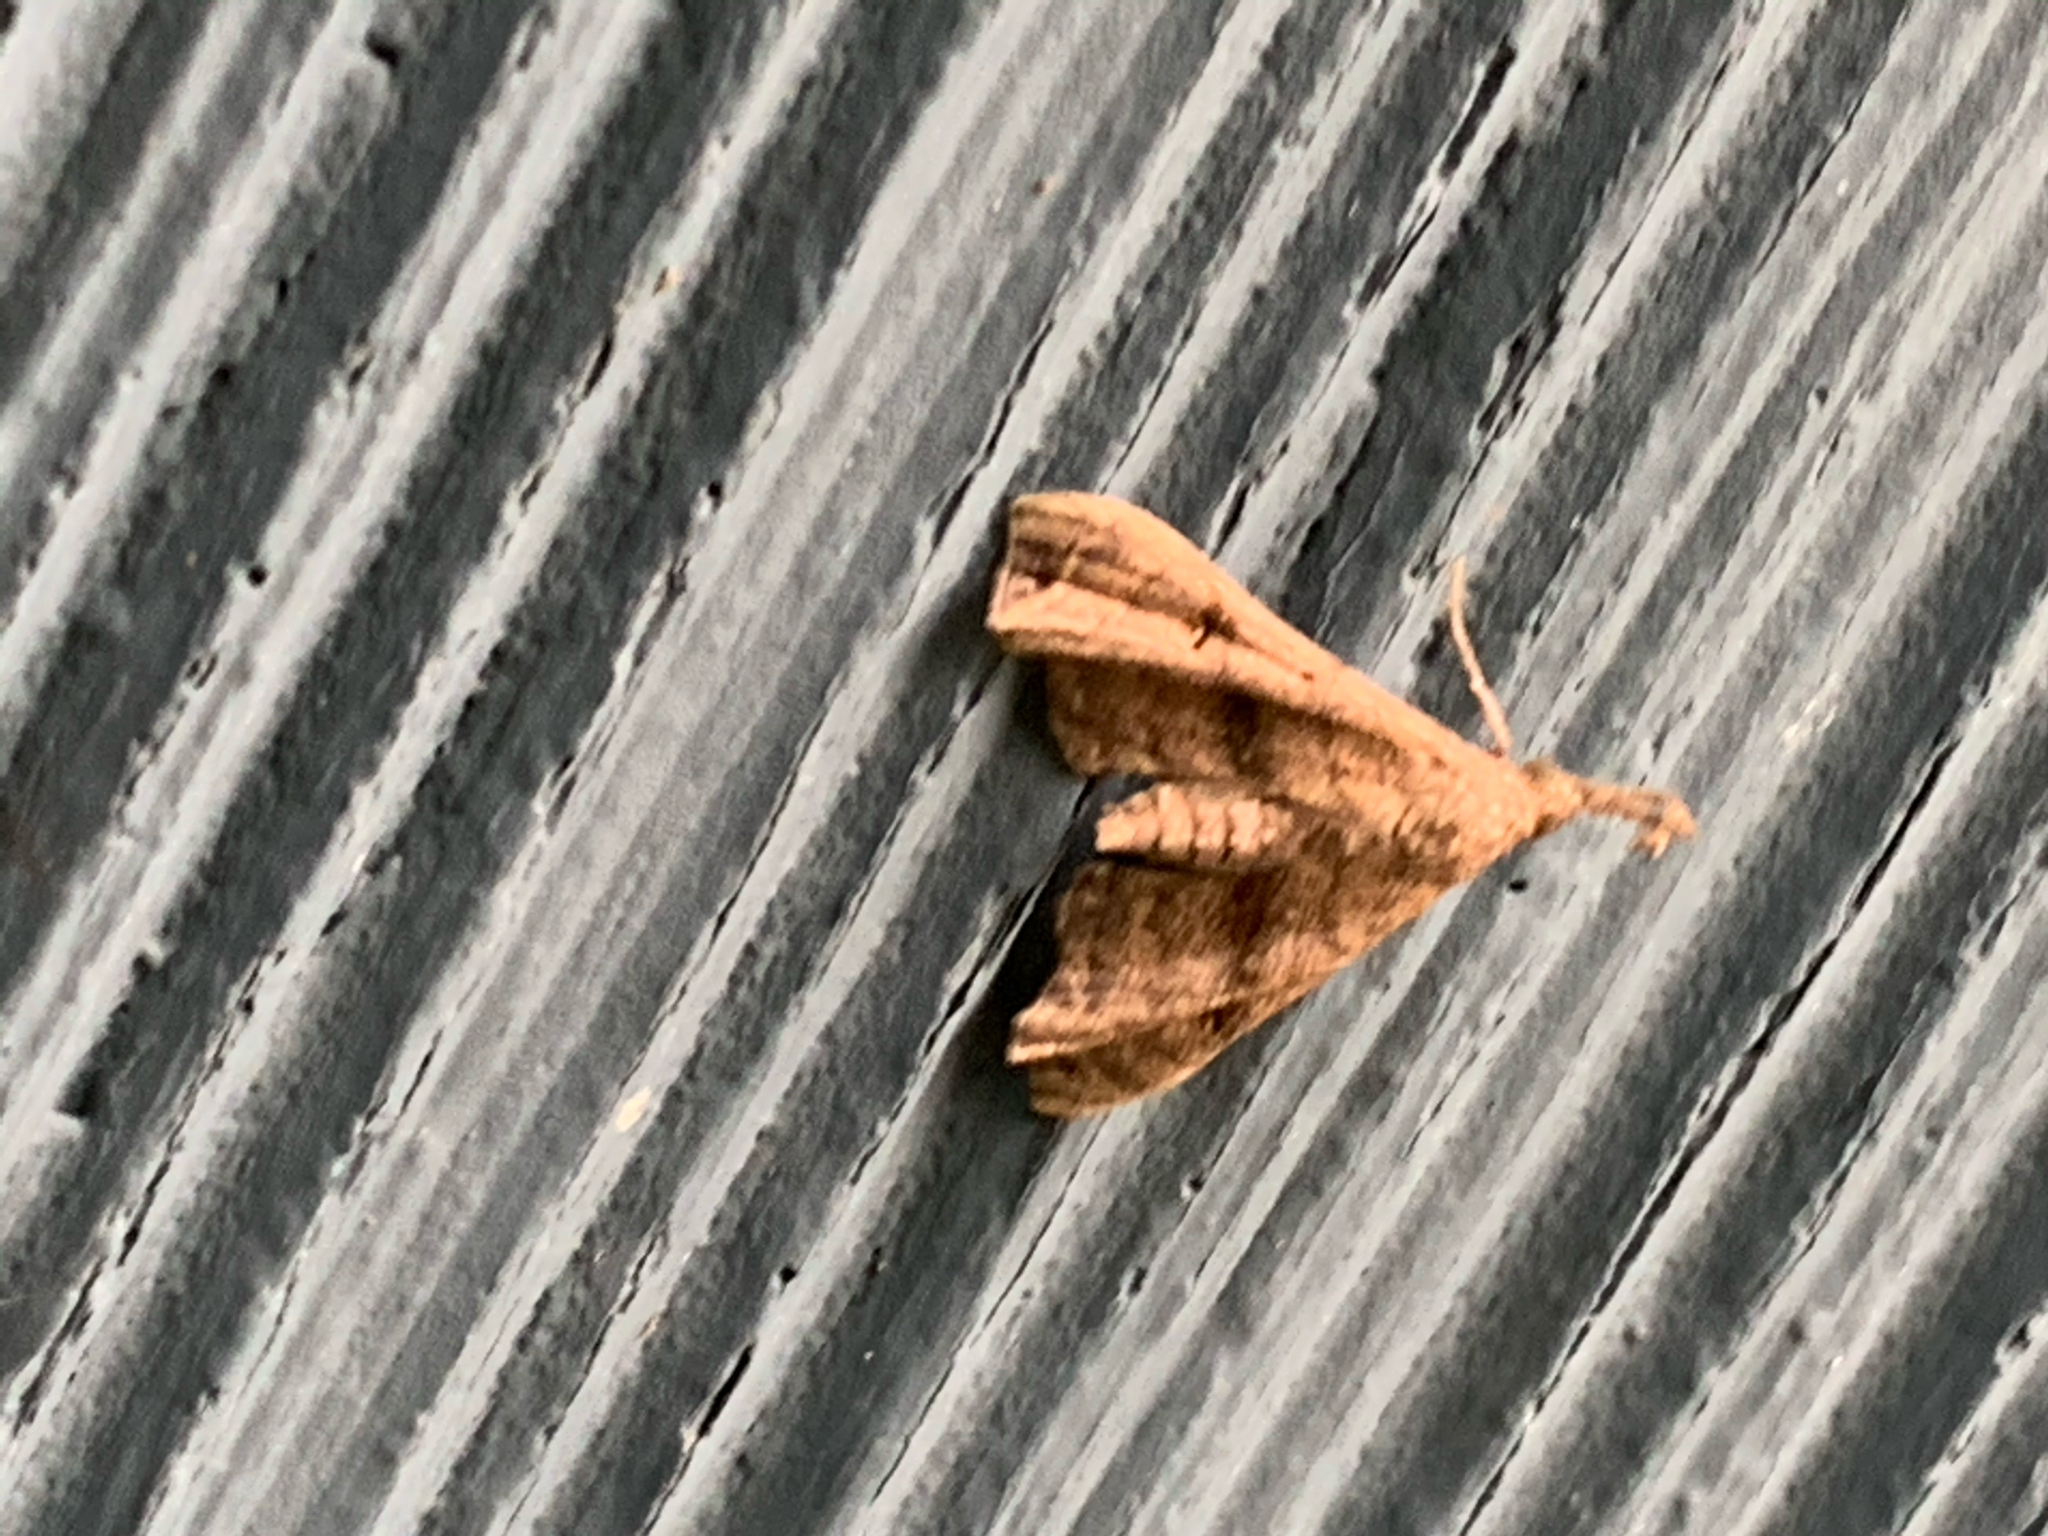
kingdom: Animalia
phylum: Arthropoda
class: Insecta
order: Lepidoptera
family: Erebidae
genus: Palthis
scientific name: Palthis asopialis
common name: Faint-spotted palthis moth
